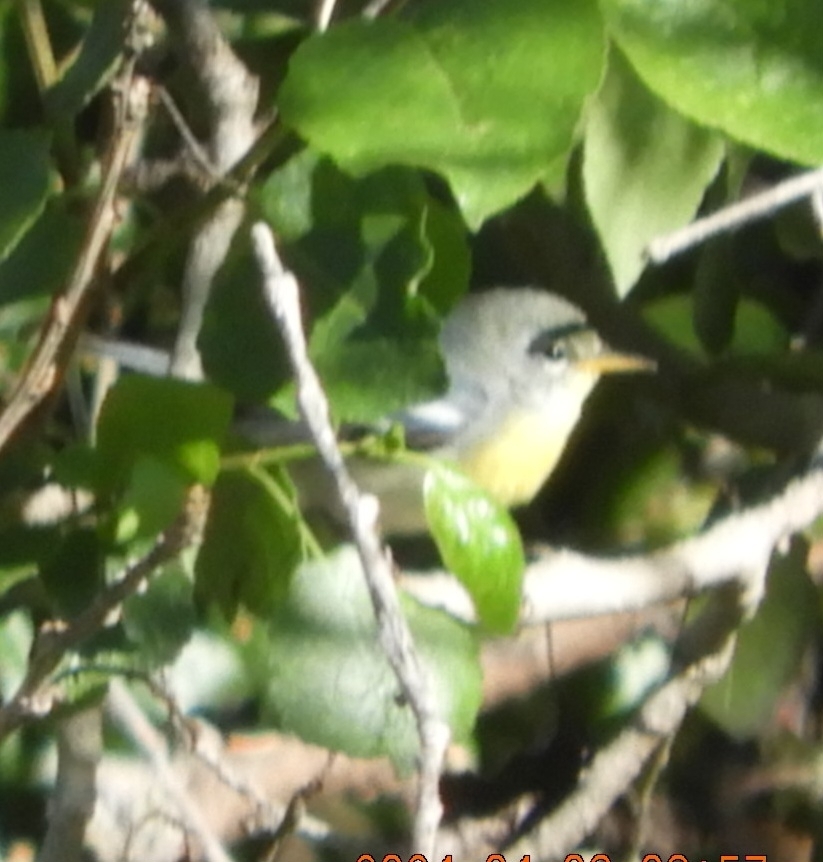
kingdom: Animalia
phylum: Chordata
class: Aves
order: Passeriformes
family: Parulidae
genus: Setophaga
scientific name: Setophaga americana
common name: Northern parula
